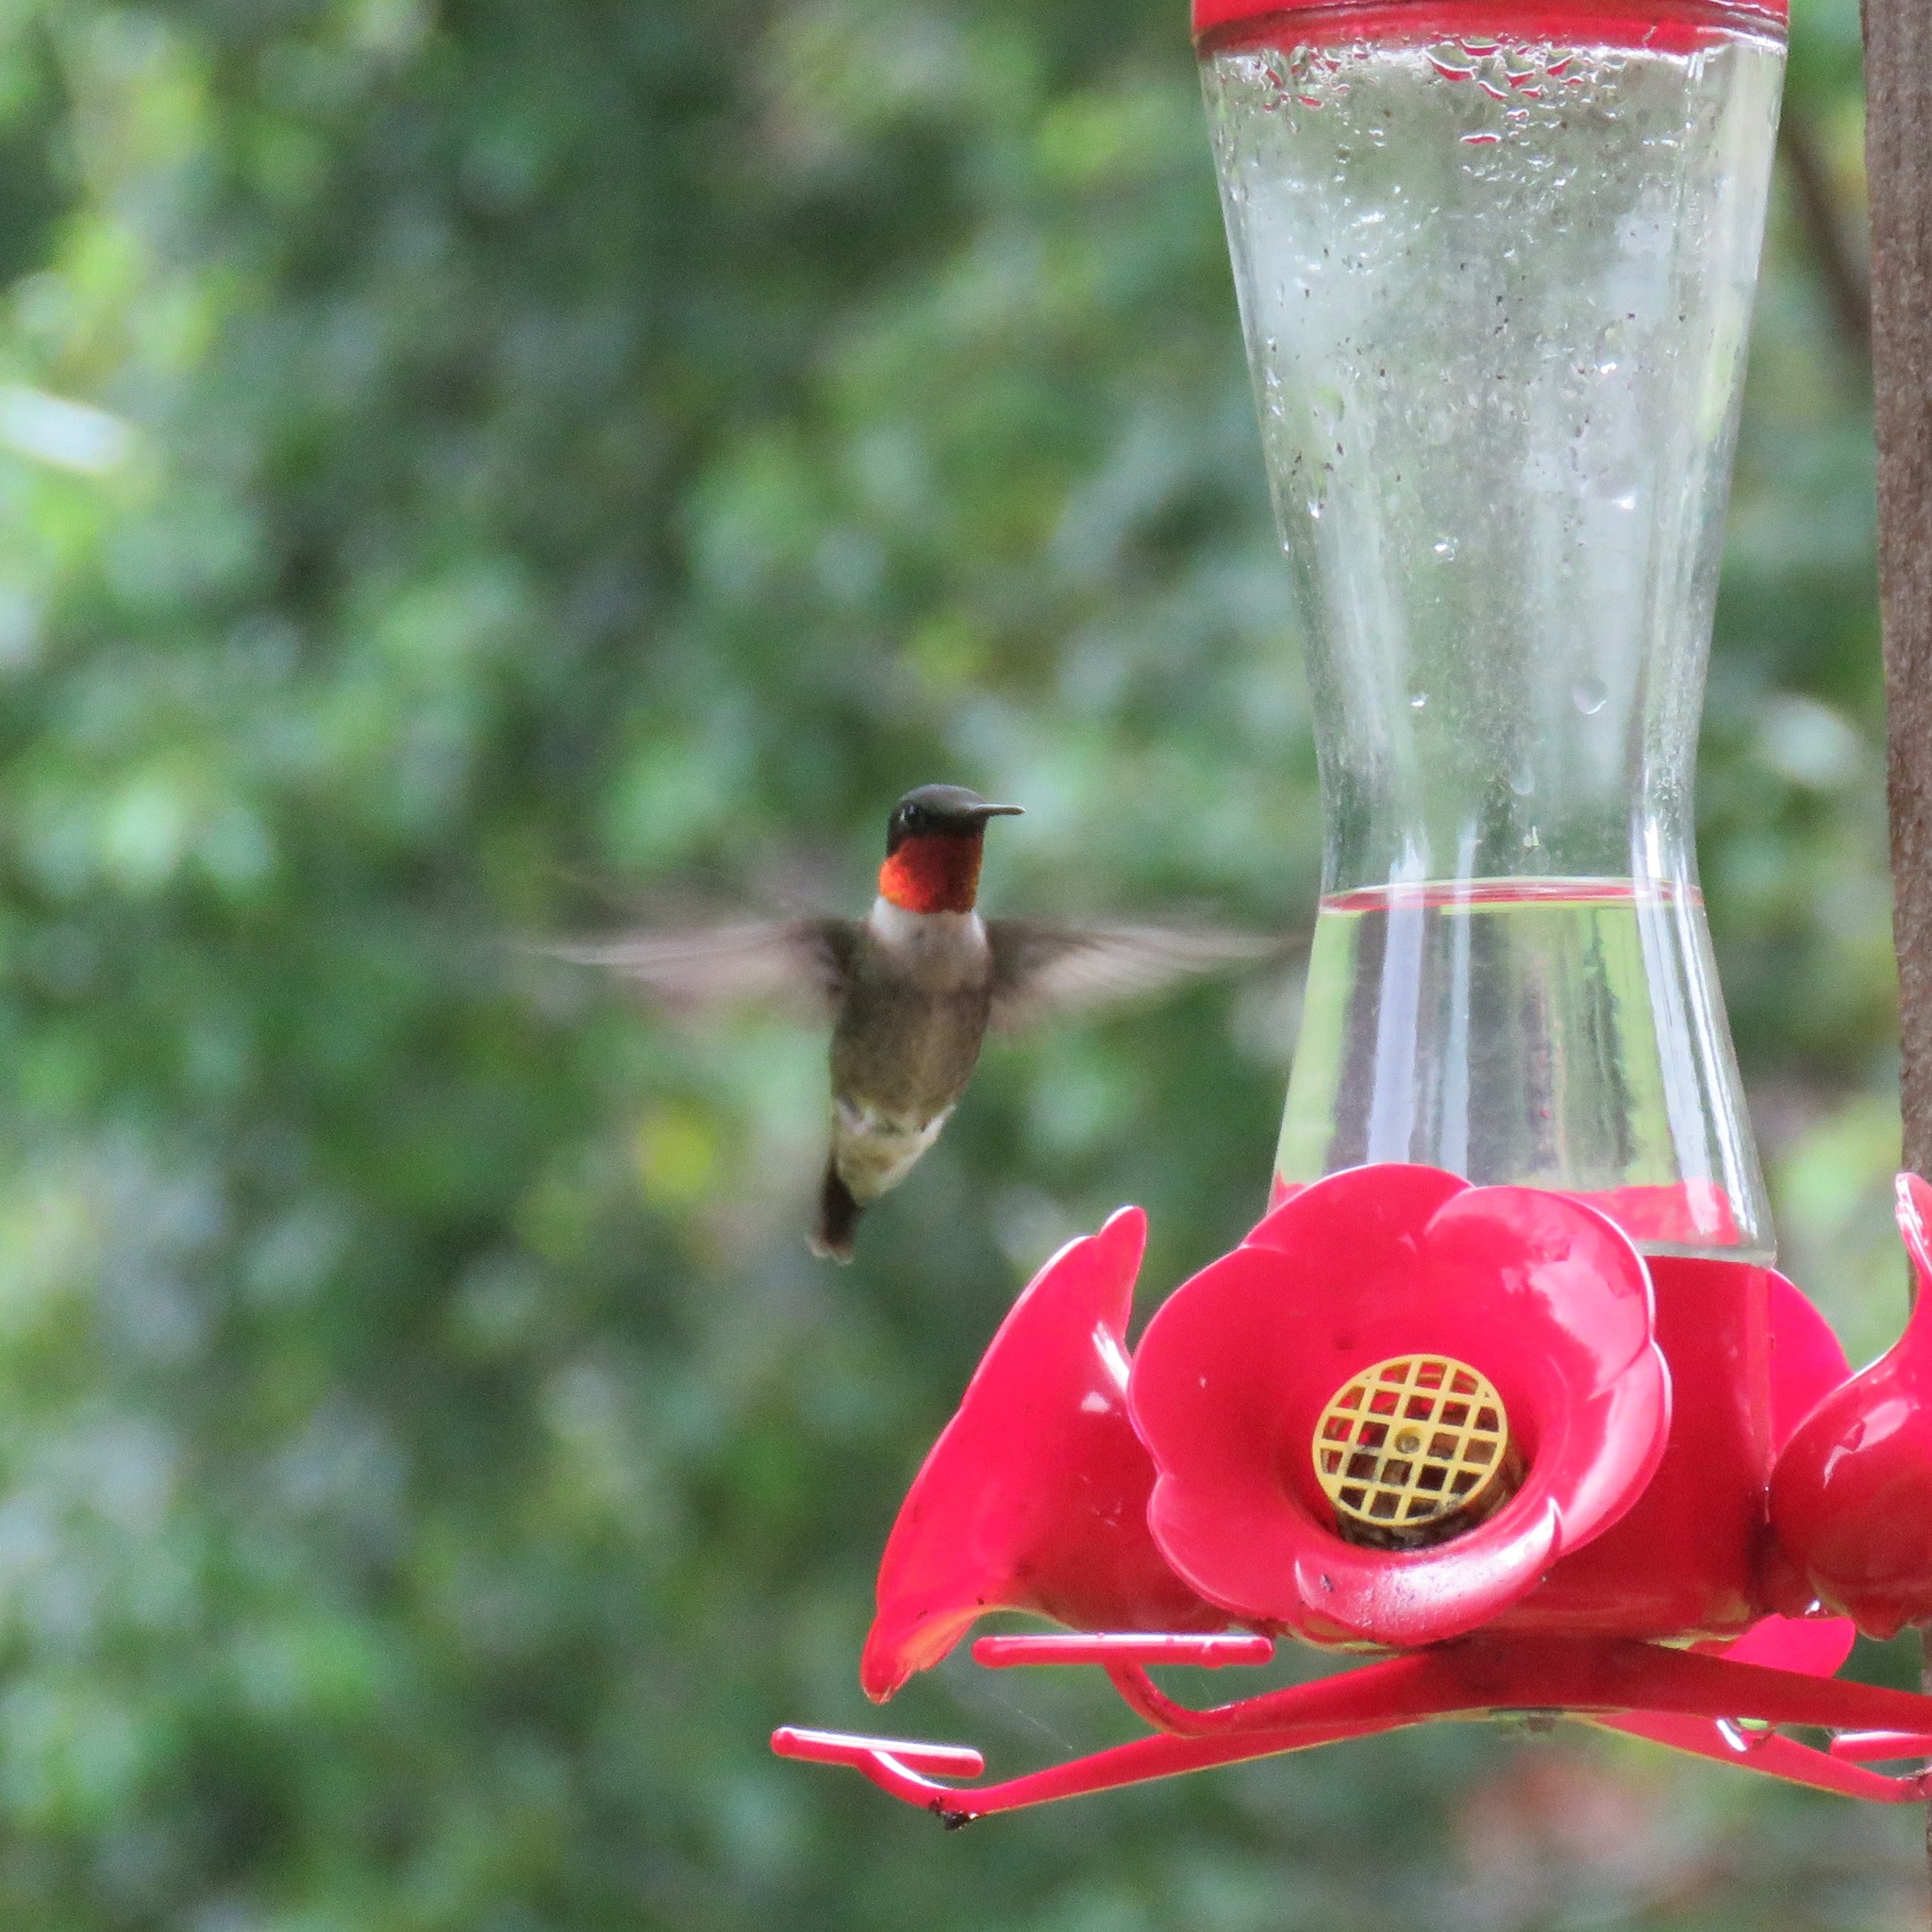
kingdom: Animalia
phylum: Chordata
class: Aves
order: Apodiformes
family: Trochilidae
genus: Archilochus
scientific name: Archilochus colubris
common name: Ruby-throated hummingbird
